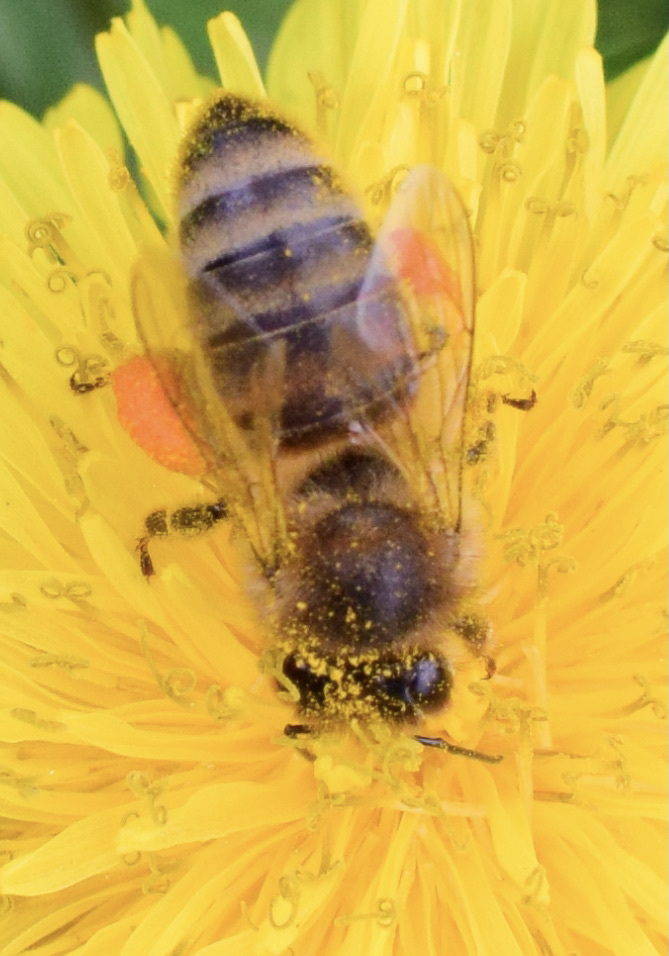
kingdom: Animalia
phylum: Arthropoda
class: Insecta
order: Hymenoptera
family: Apidae
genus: Apis
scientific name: Apis mellifera
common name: Honey bee
